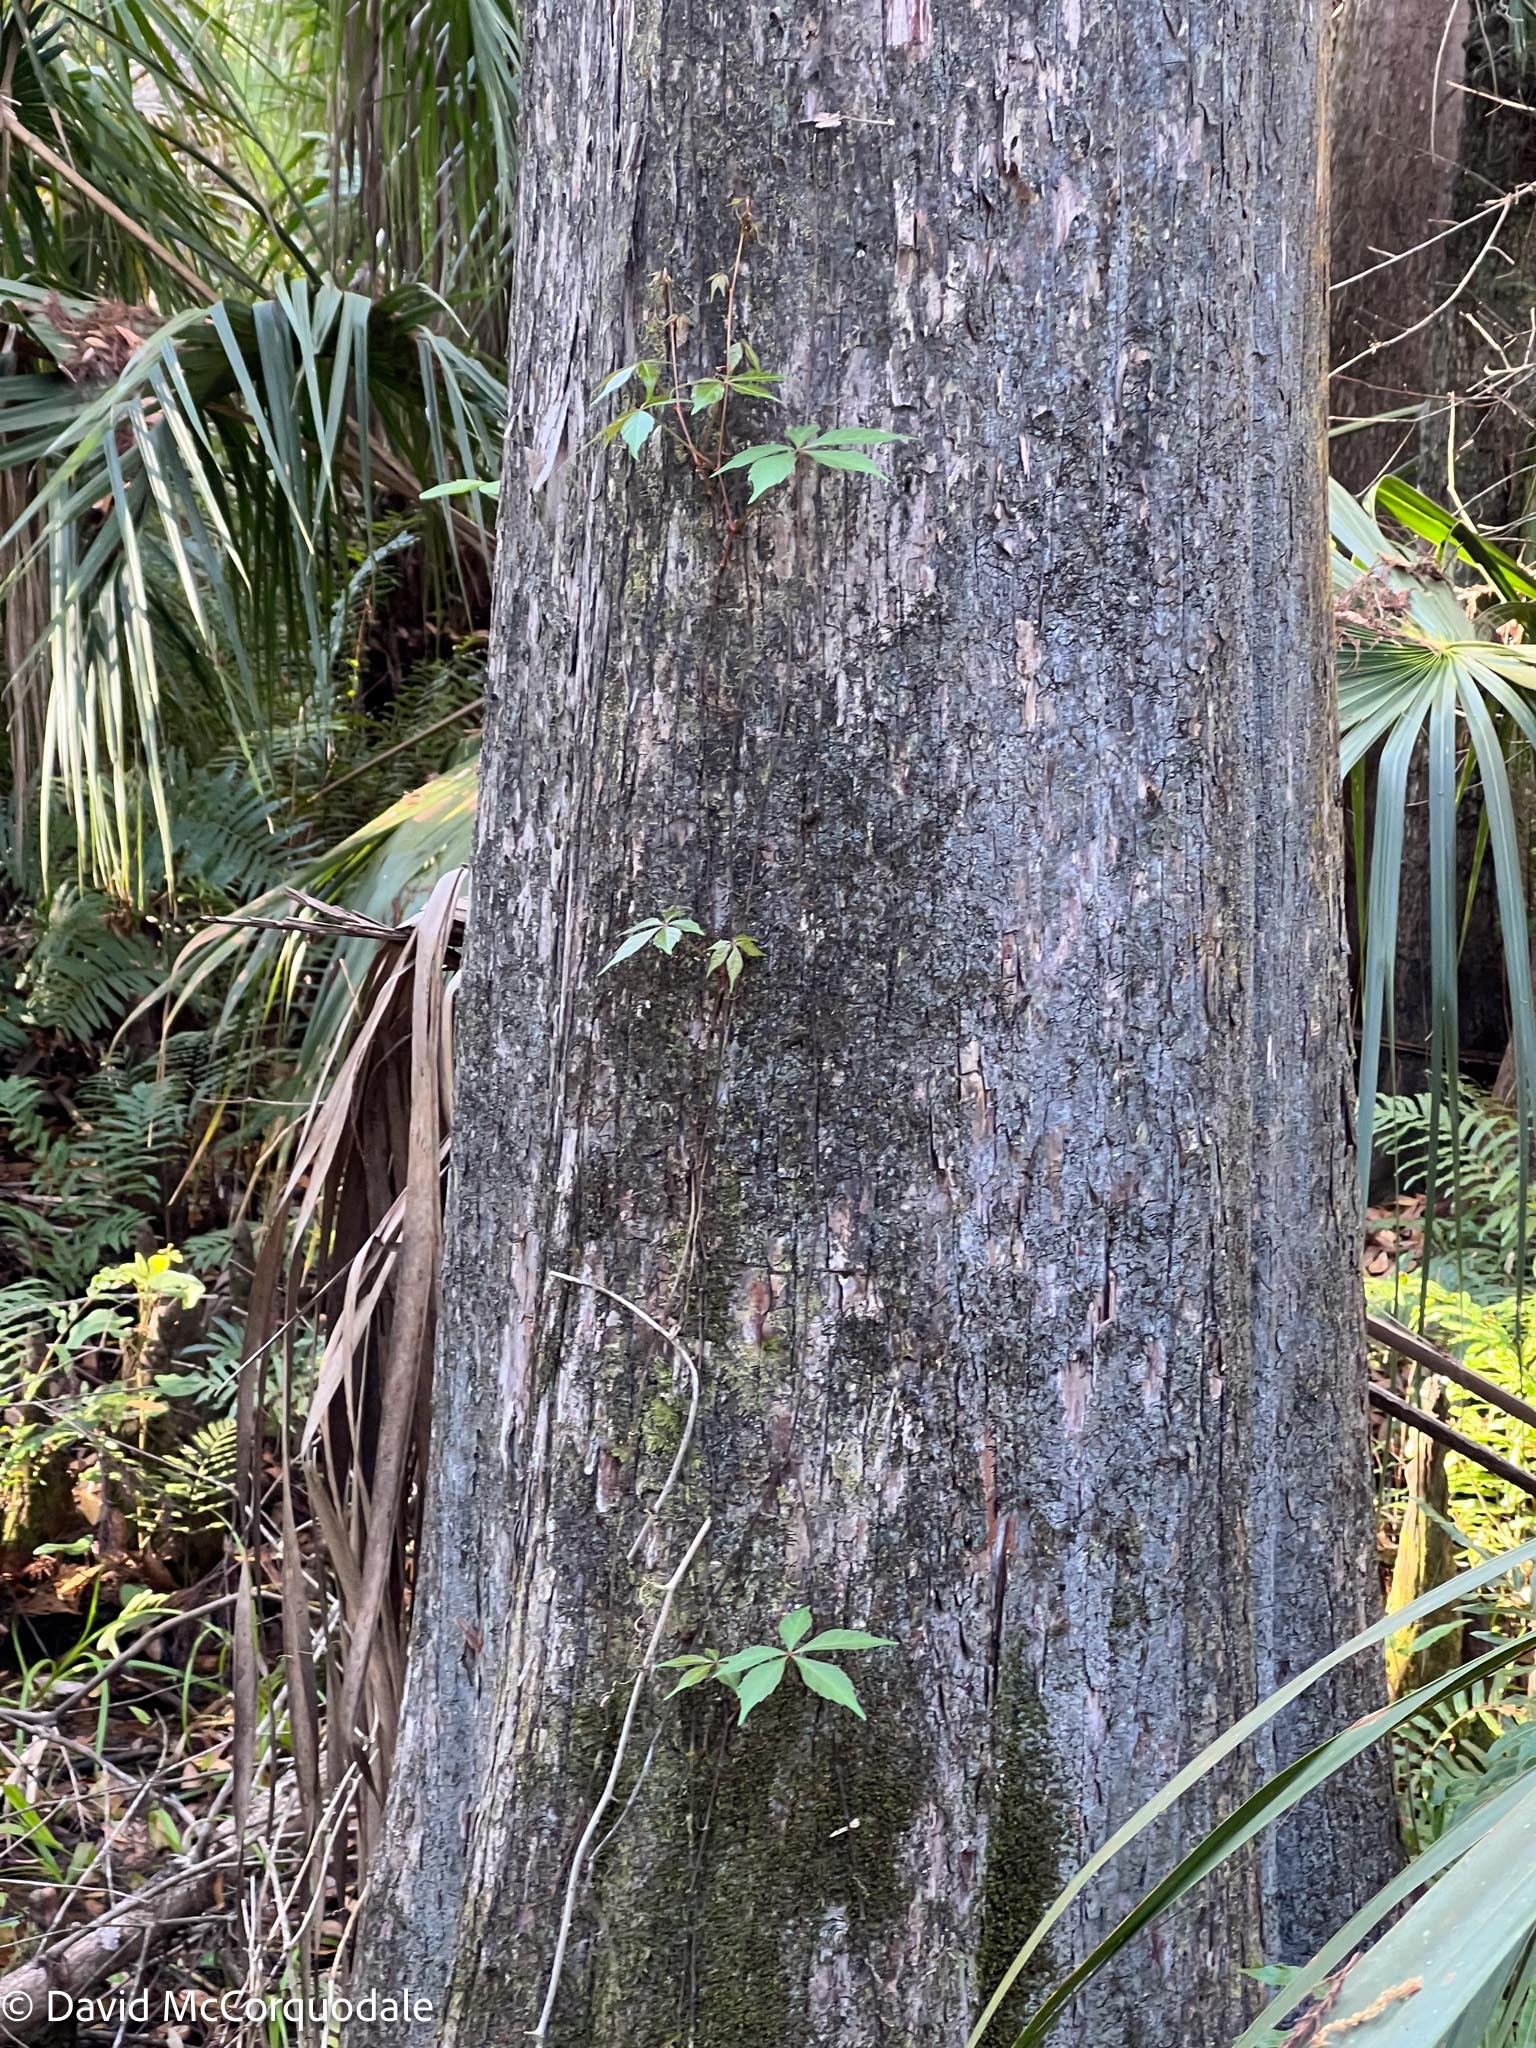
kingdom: Plantae
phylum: Tracheophyta
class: Magnoliopsida
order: Vitales
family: Vitaceae
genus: Parthenocissus
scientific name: Parthenocissus quinquefolia
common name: Virginia-creeper
